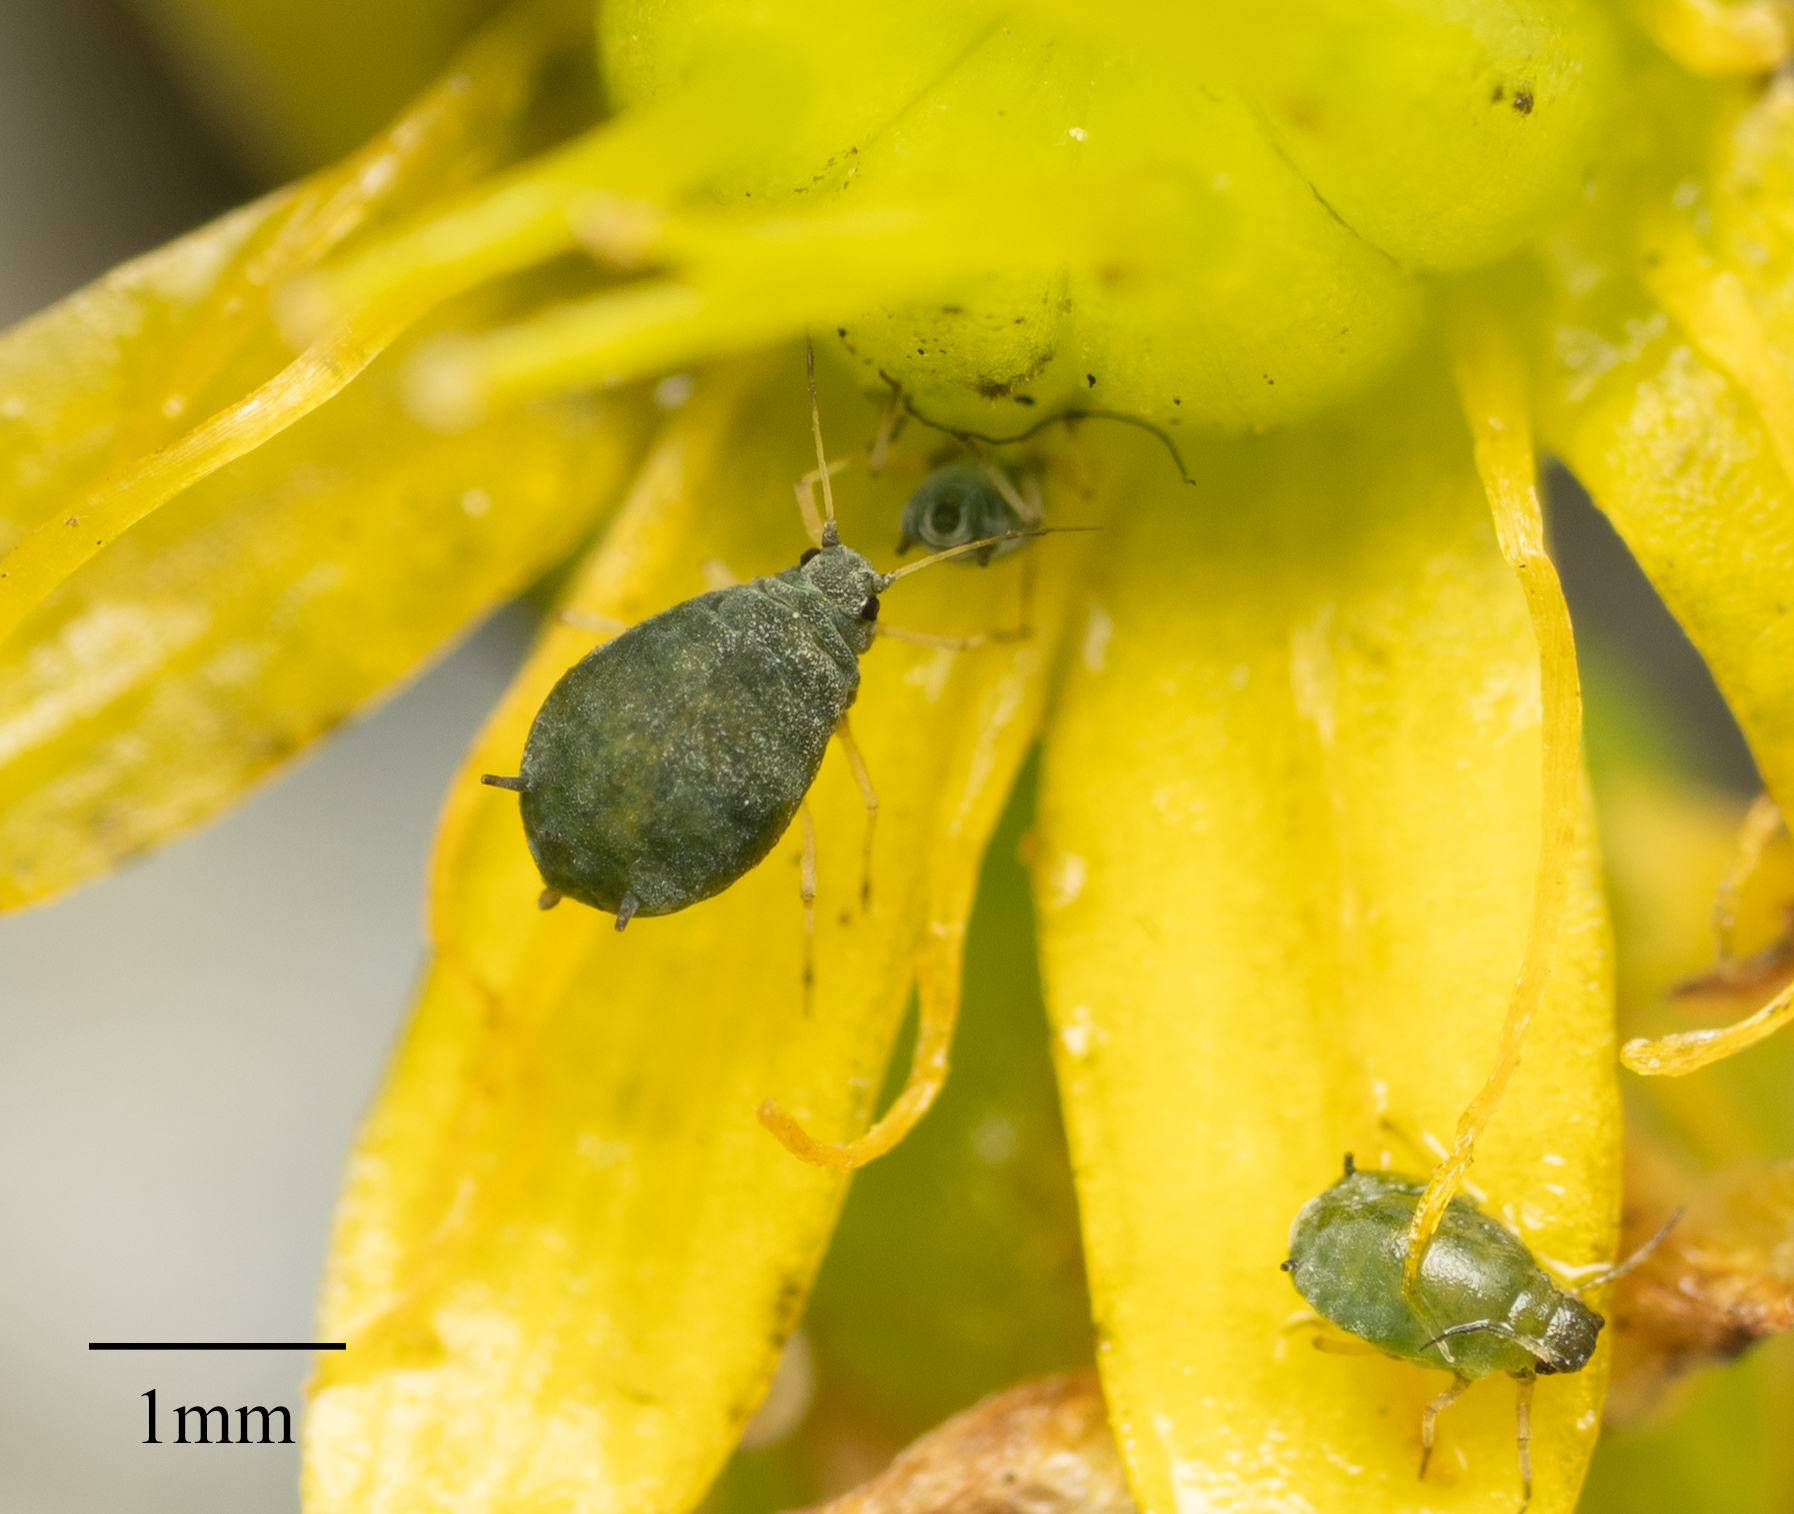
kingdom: Animalia
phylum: Arthropoda
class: Insecta
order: Hemiptera
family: Aphididae
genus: Aphis
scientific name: Aphis sedi
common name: Cactus aphid
